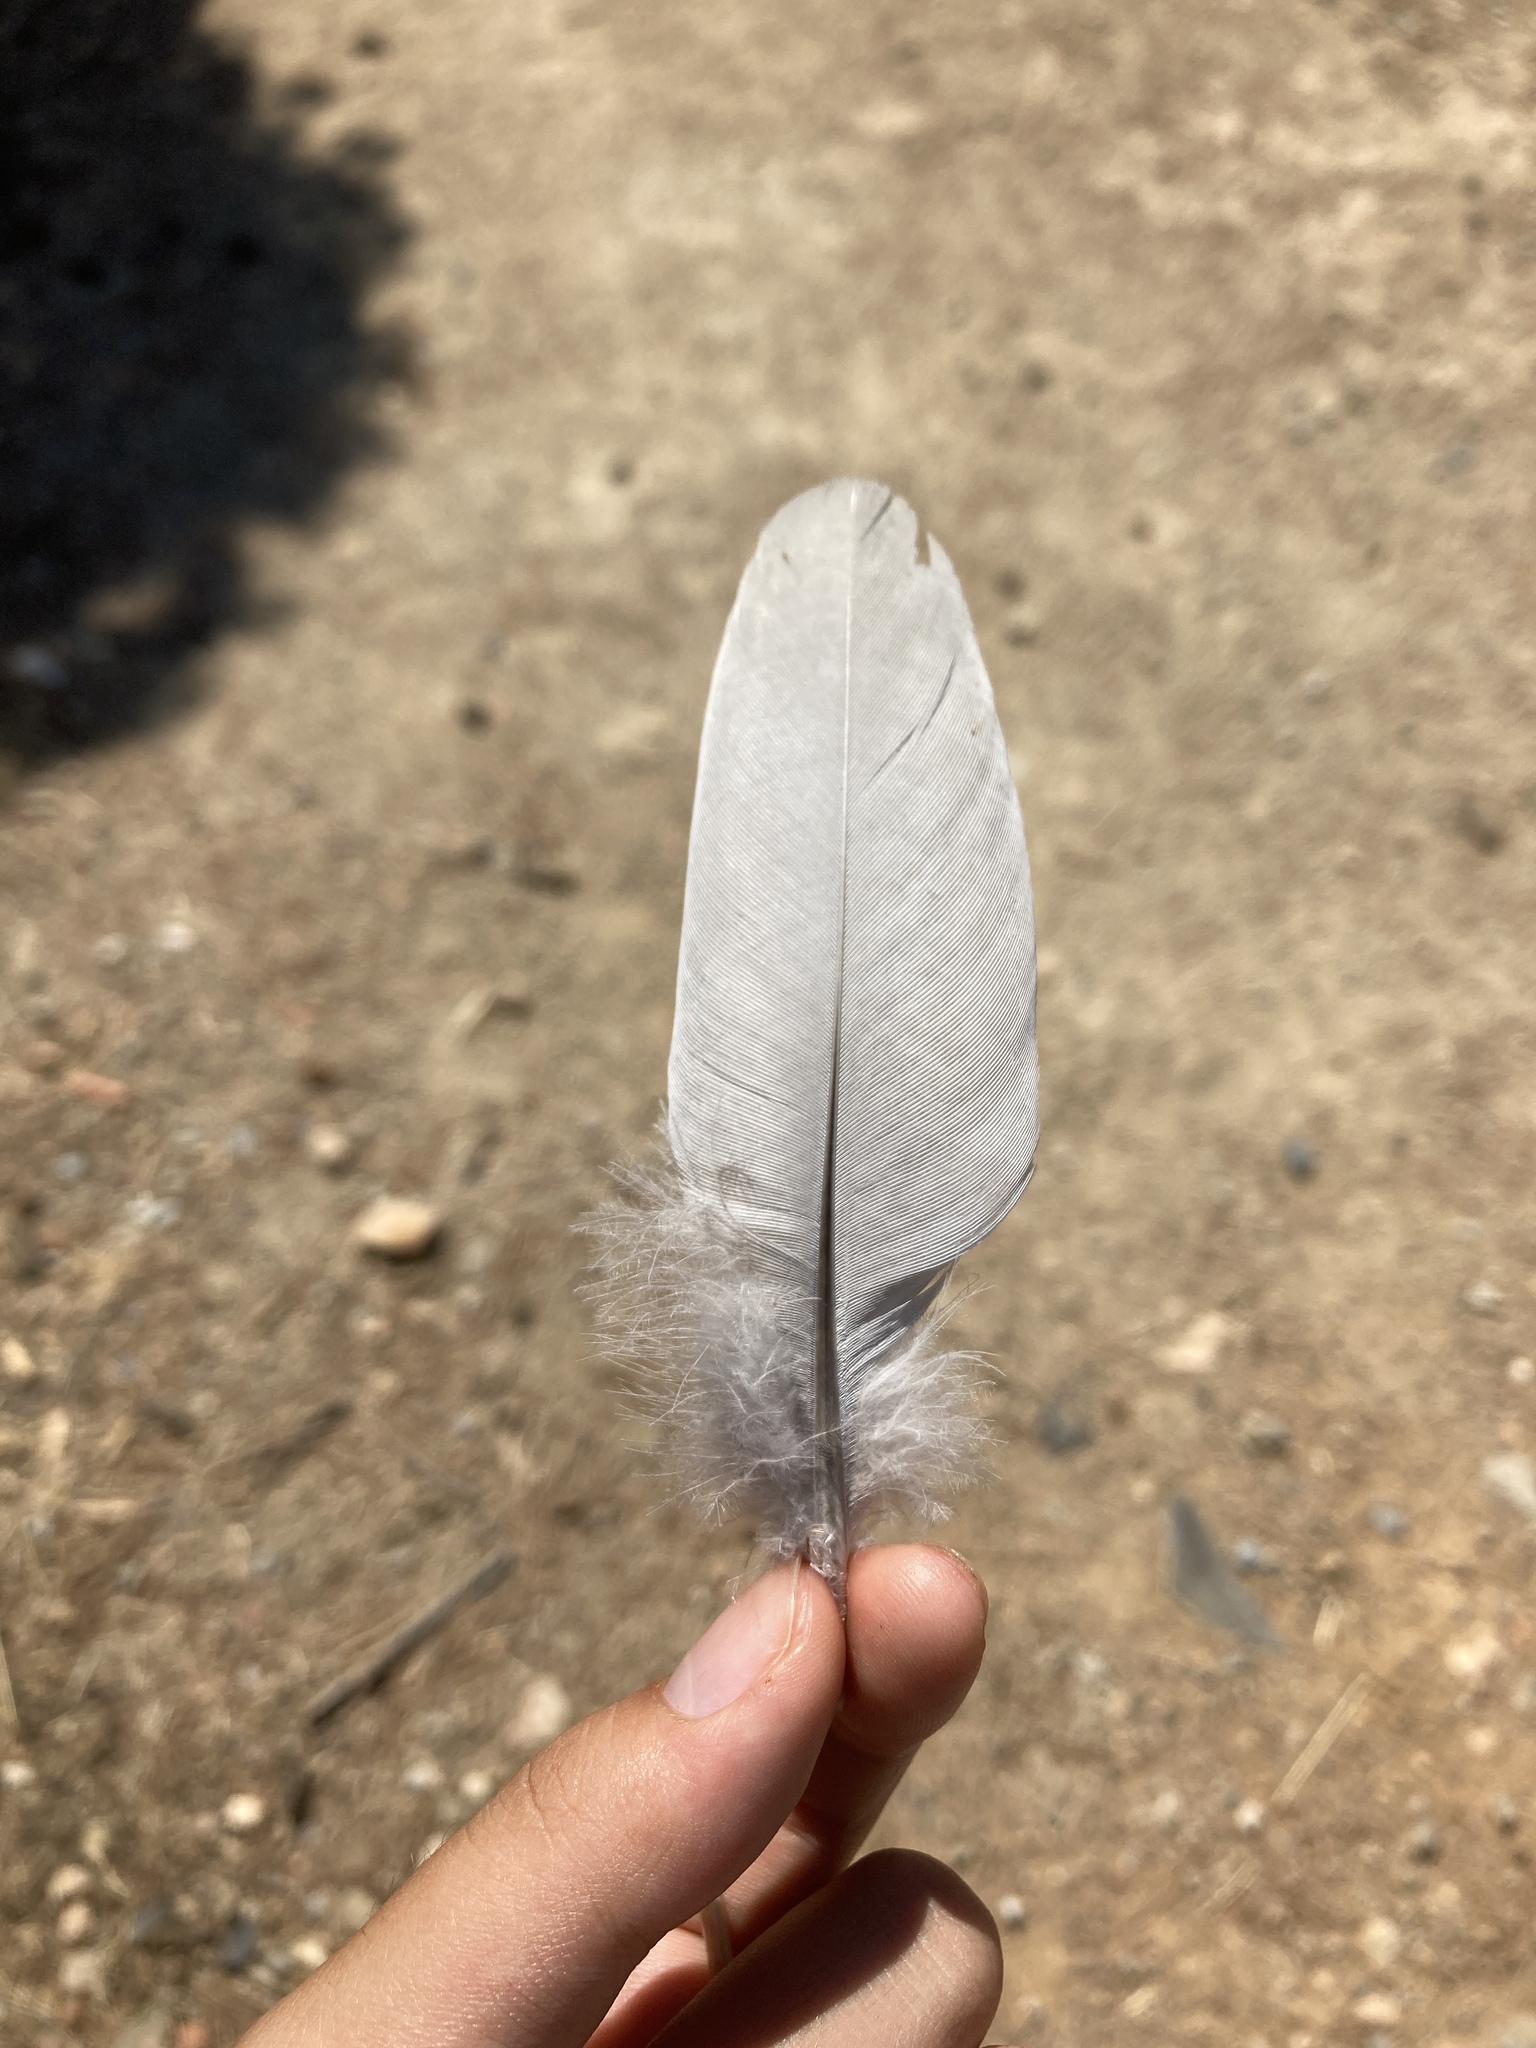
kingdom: Animalia
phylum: Chordata
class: Aves
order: Columbiformes
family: Columbidae
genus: Columba
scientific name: Columba palumbus
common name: Common wood pigeon
